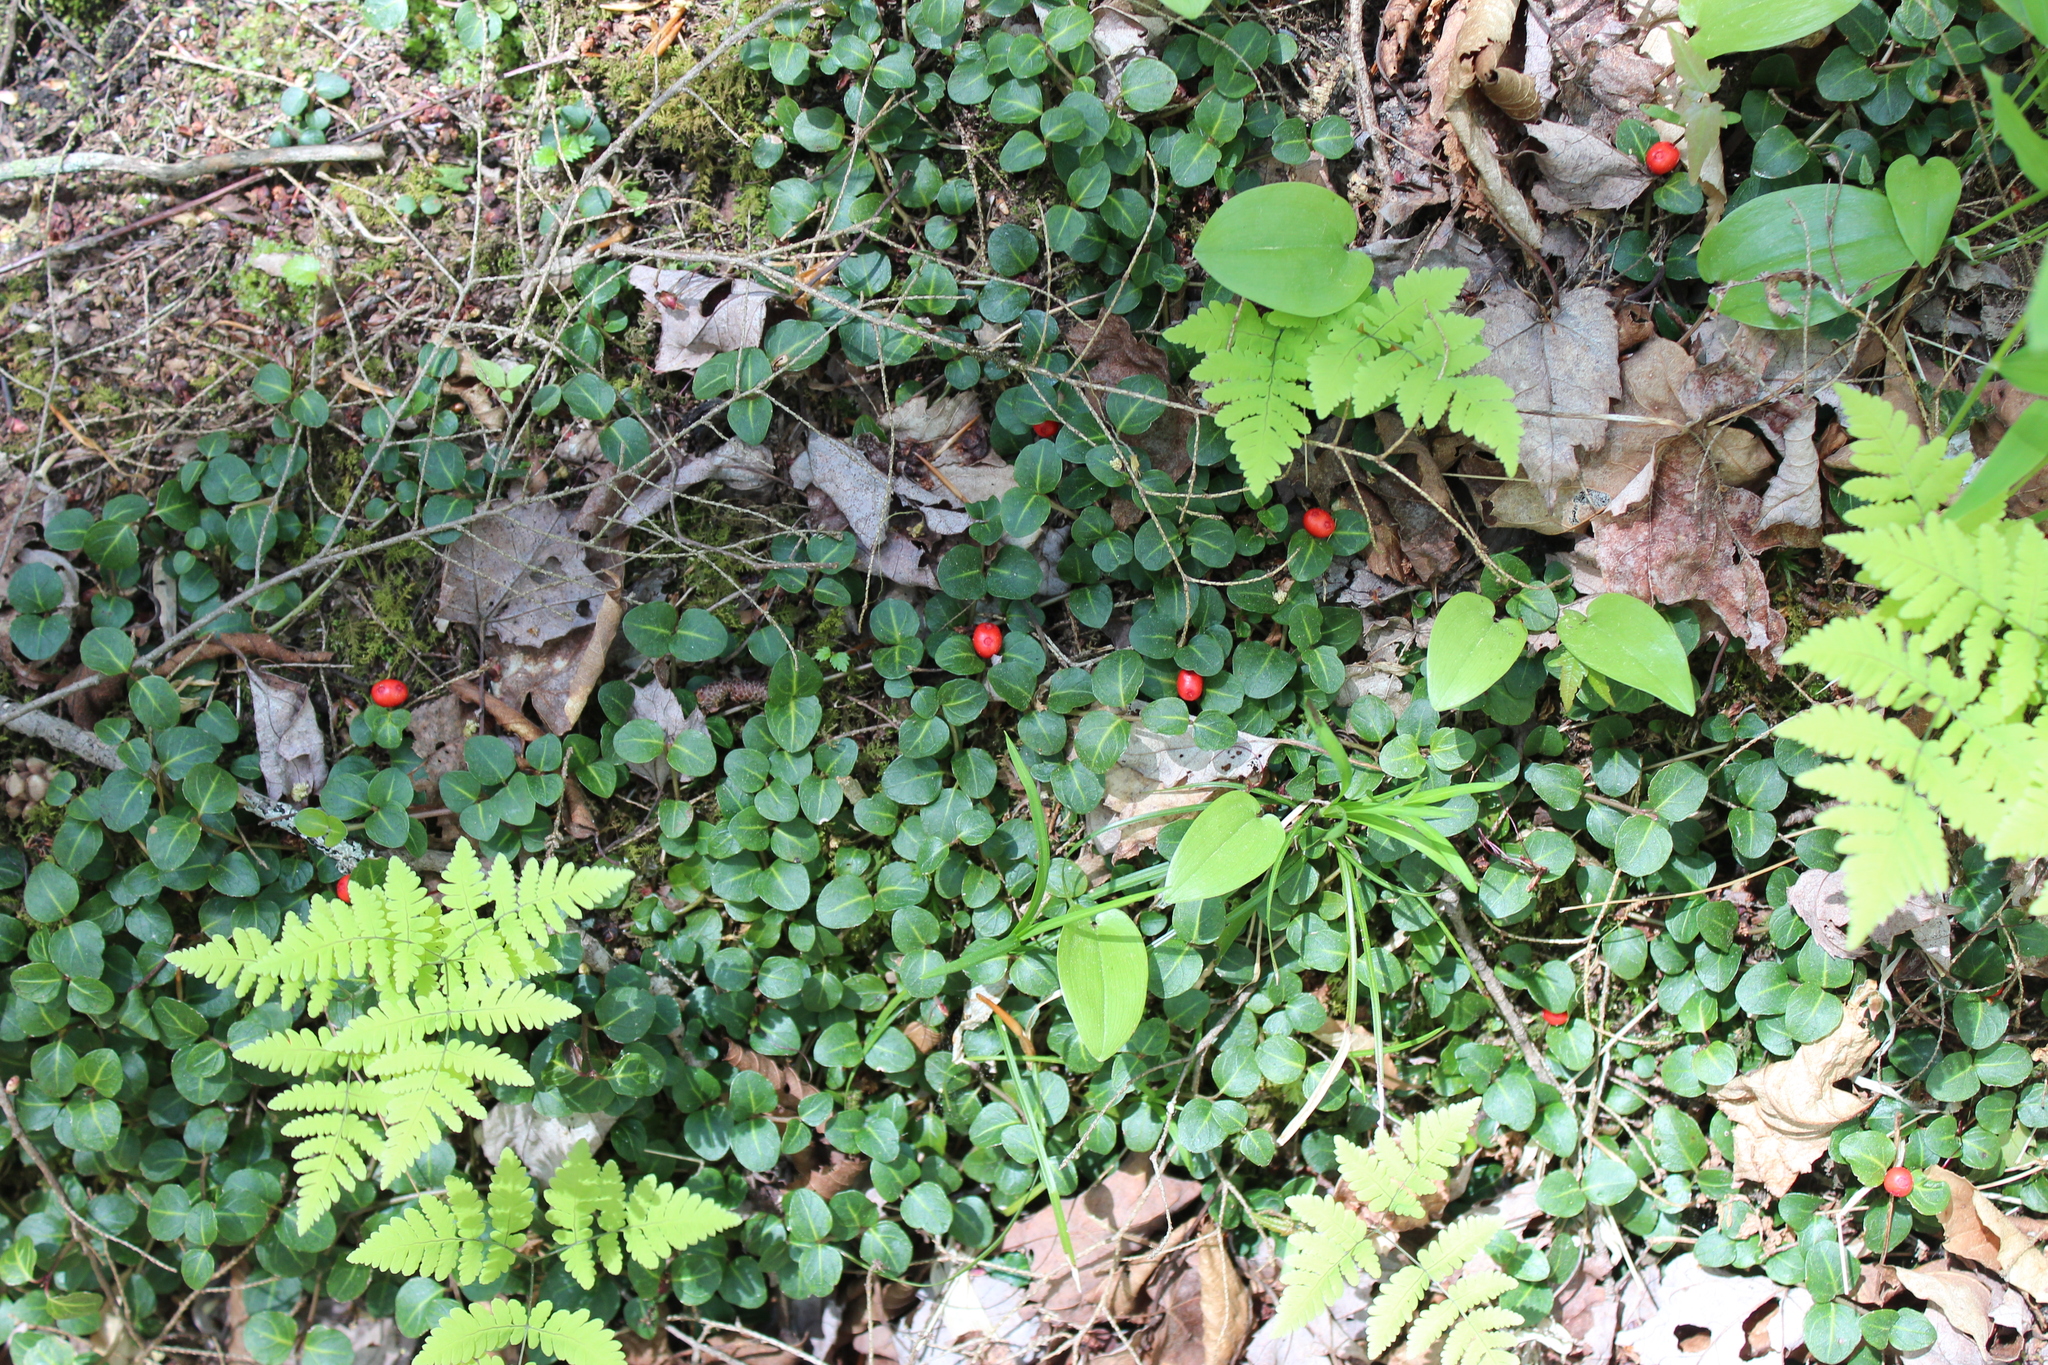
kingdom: Plantae
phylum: Tracheophyta
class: Magnoliopsida
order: Gentianales
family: Rubiaceae
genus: Mitchella
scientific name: Mitchella repens
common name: Partridge-berry
